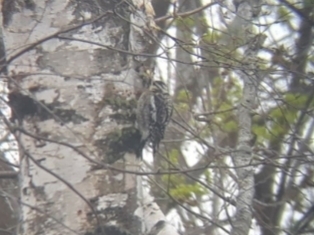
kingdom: Animalia
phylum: Chordata
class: Aves
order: Piciformes
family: Picidae
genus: Sphyrapicus
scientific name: Sphyrapicus varius
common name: Yellow-bellied sapsucker
